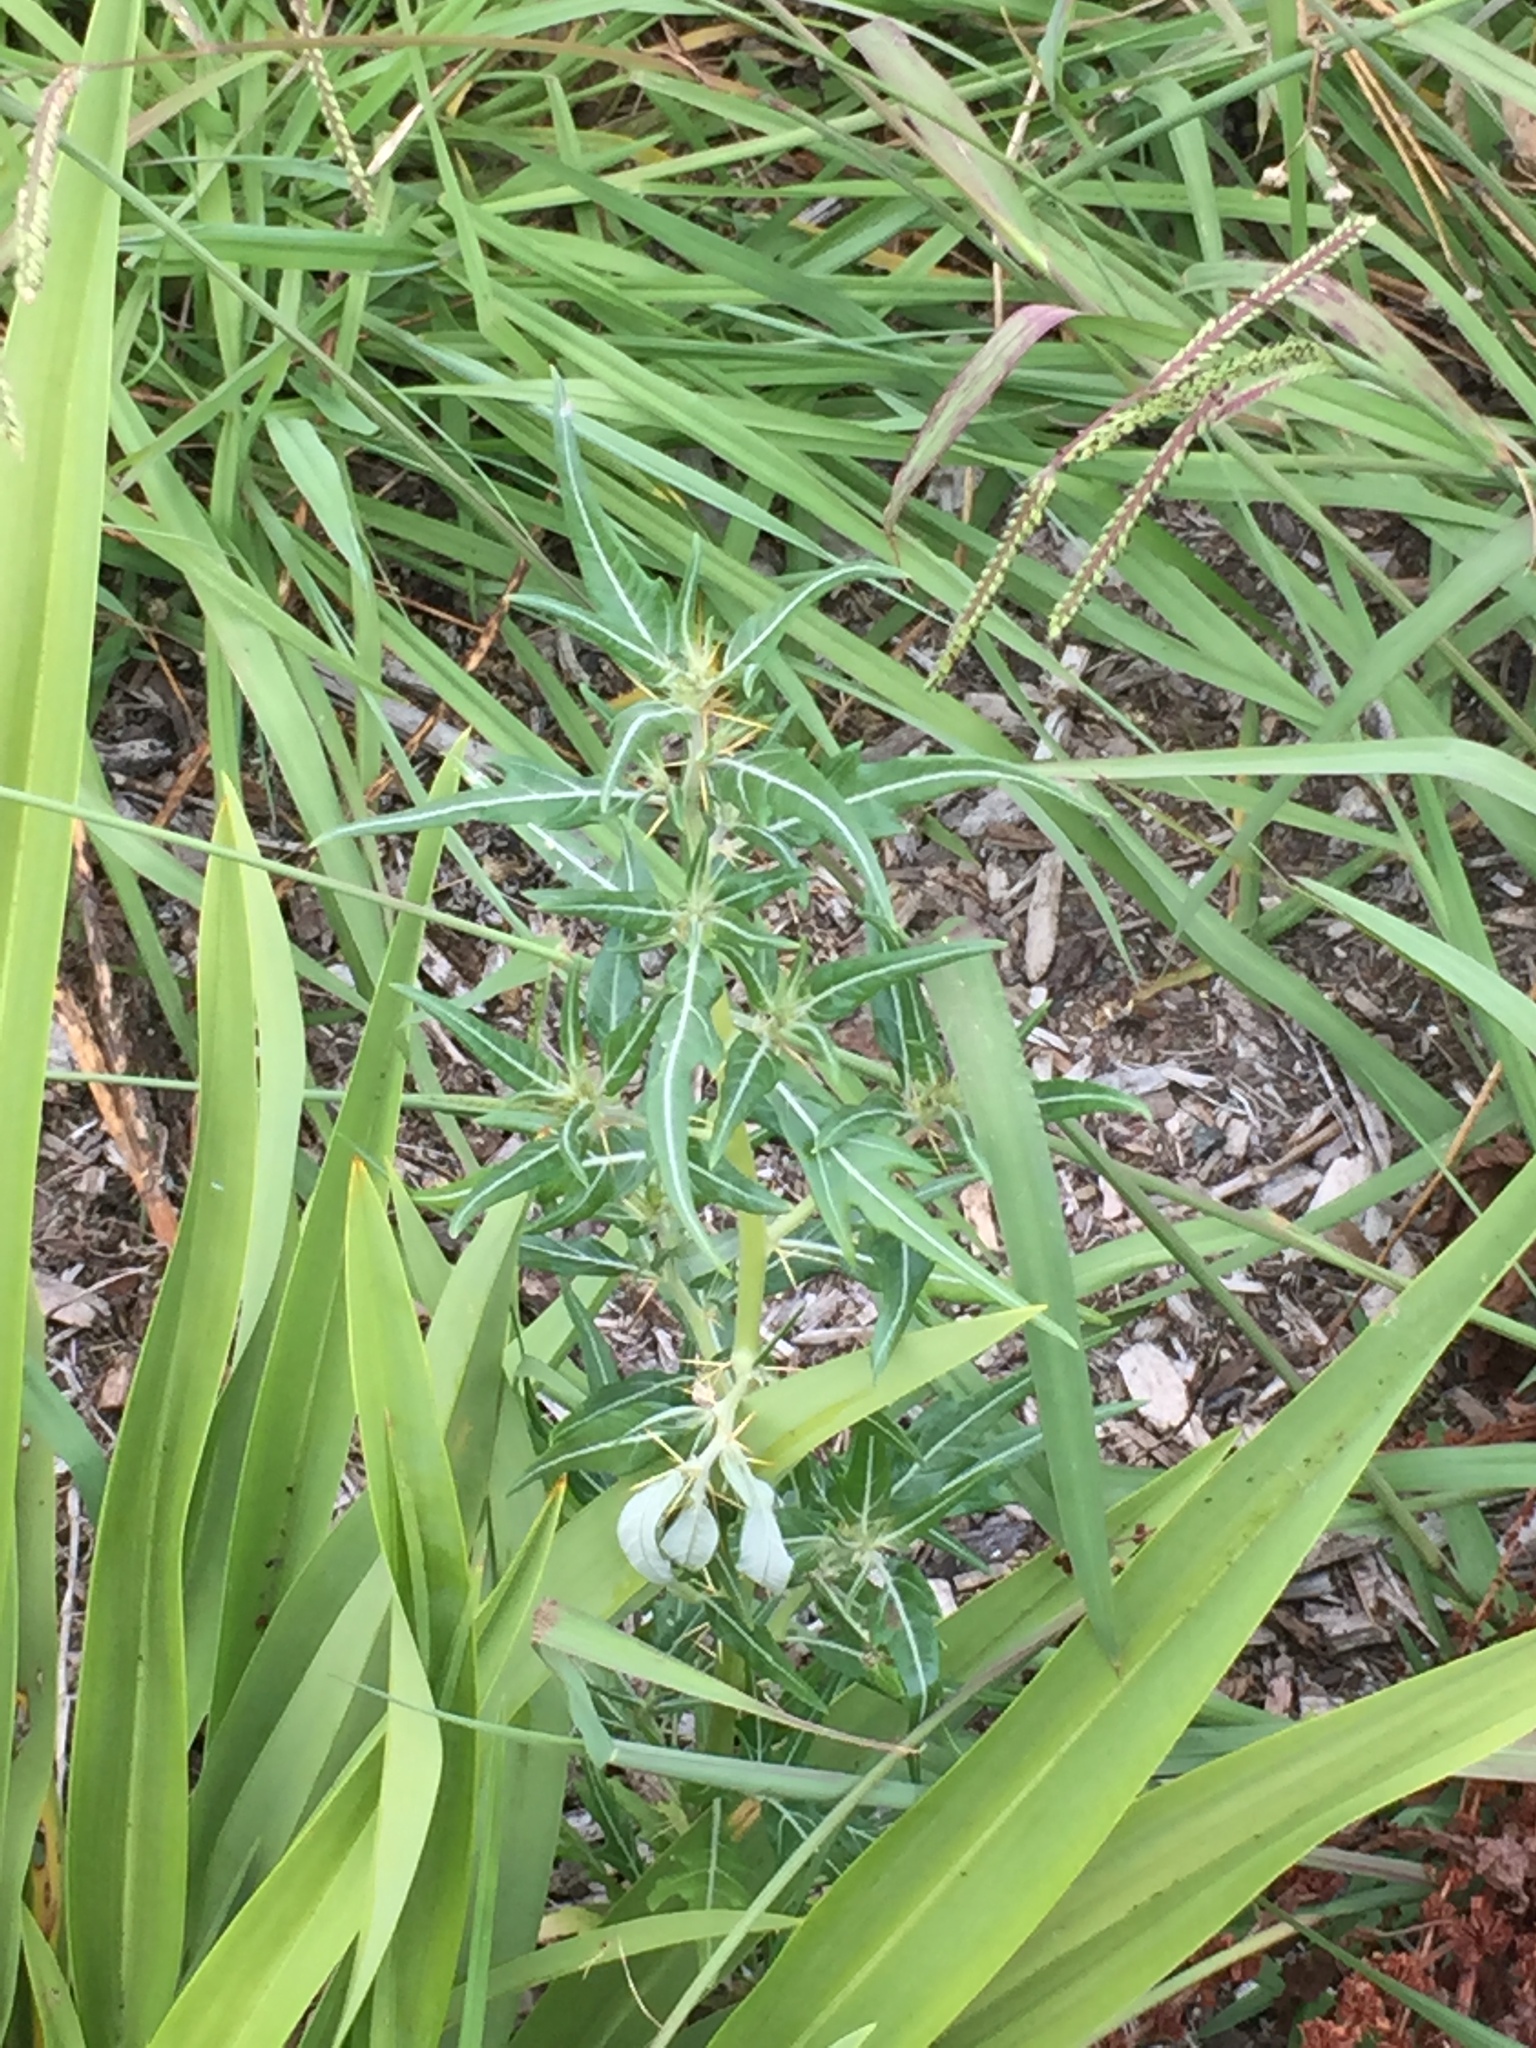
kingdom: Plantae
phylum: Tracheophyta
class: Magnoliopsida
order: Asterales
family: Asteraceae
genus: Xanthium
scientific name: Xanthium spinosum
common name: Spiny cocklebur
